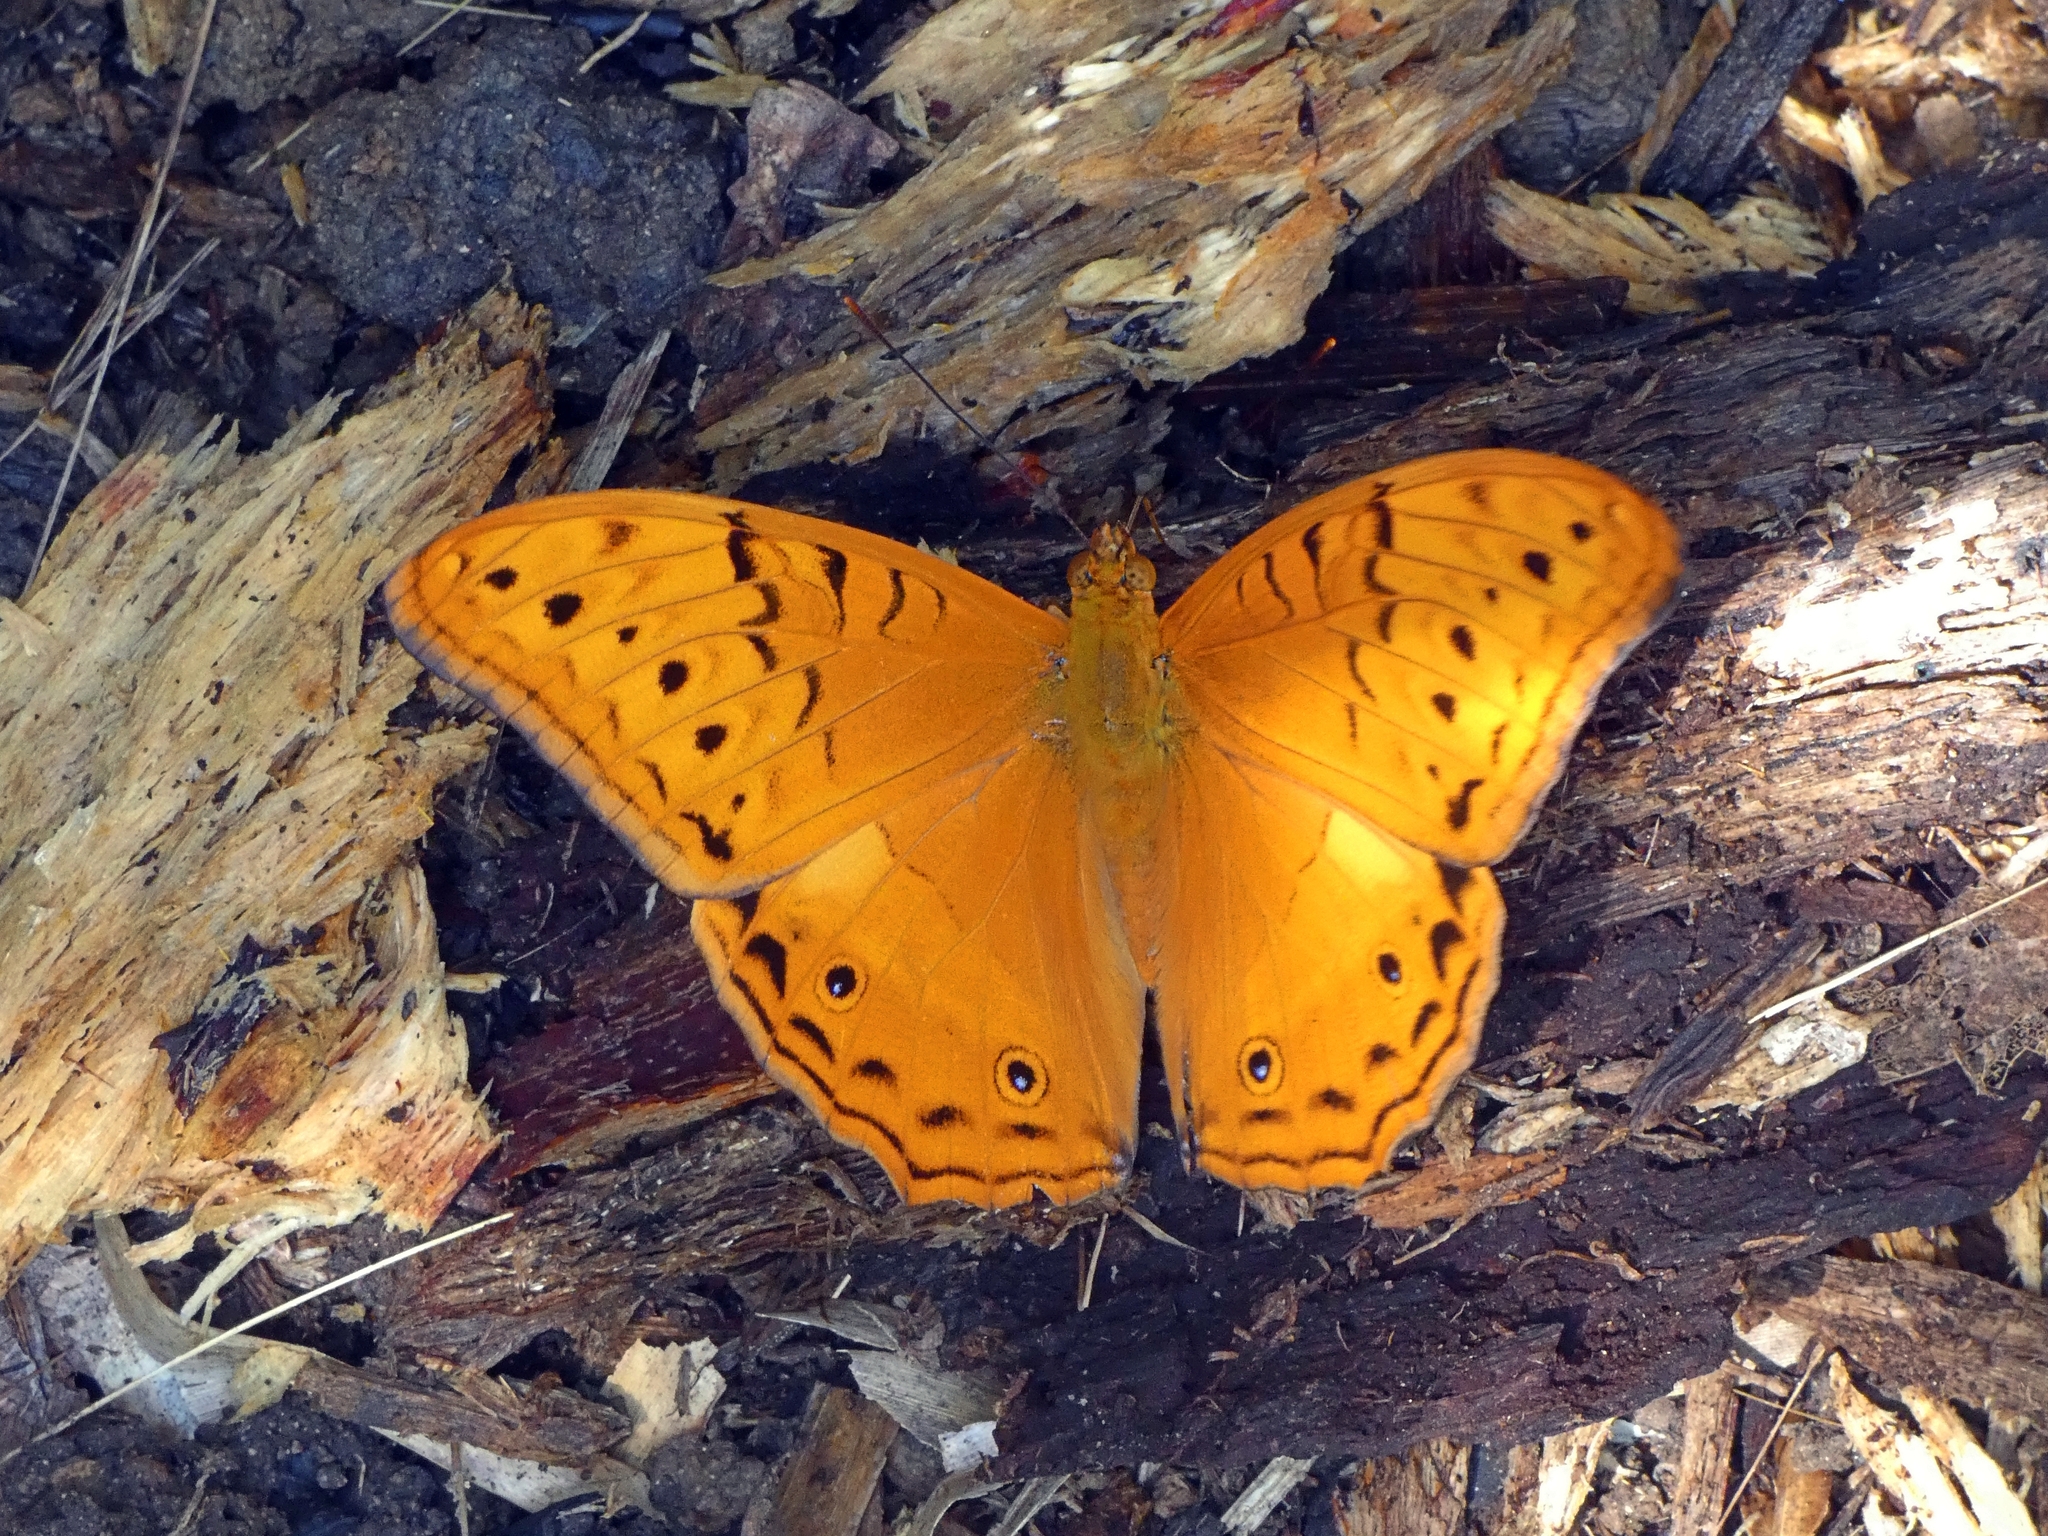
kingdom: Animalia
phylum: Arthropoda
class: Insecta
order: Lepidoptera
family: Nymphalidae
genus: Vindula
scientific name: Vindula arsinoe
